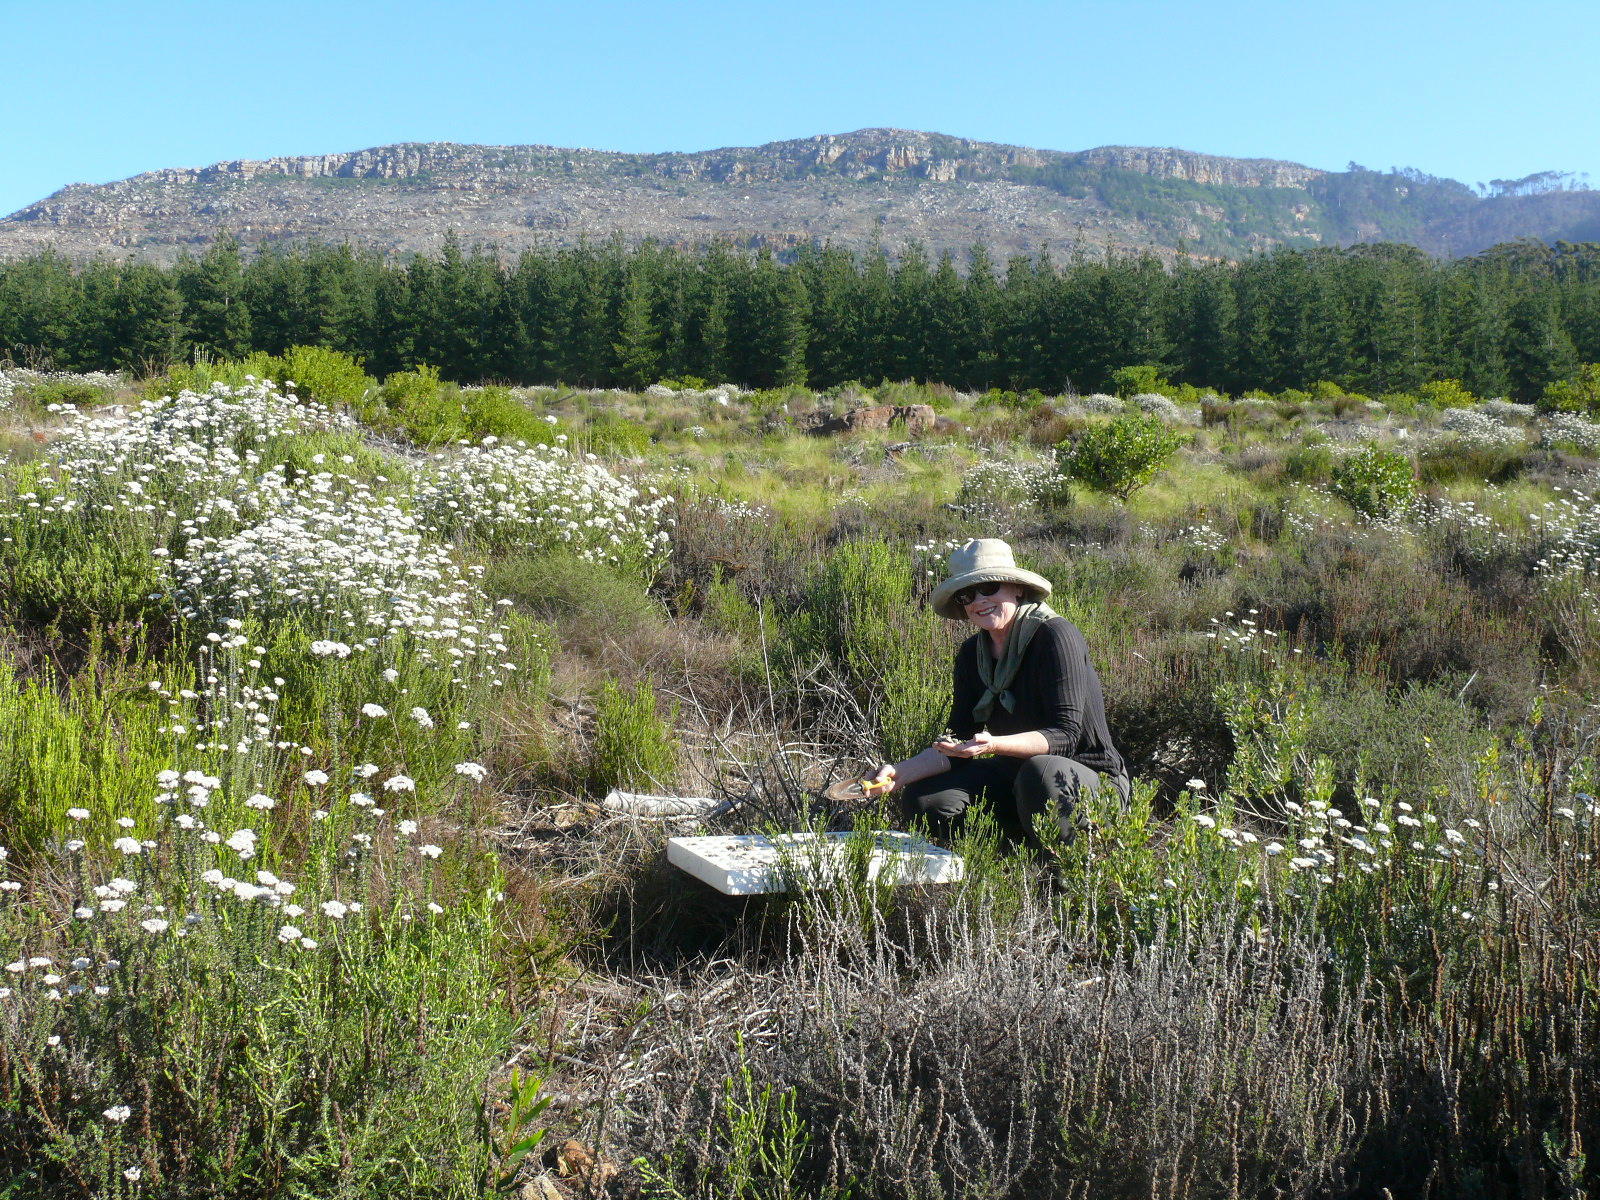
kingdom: Plantae
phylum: Tracheophyta
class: Magnoliopsida
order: Asterales
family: Asteraceae
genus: Metalasia
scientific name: Metalasia densa
